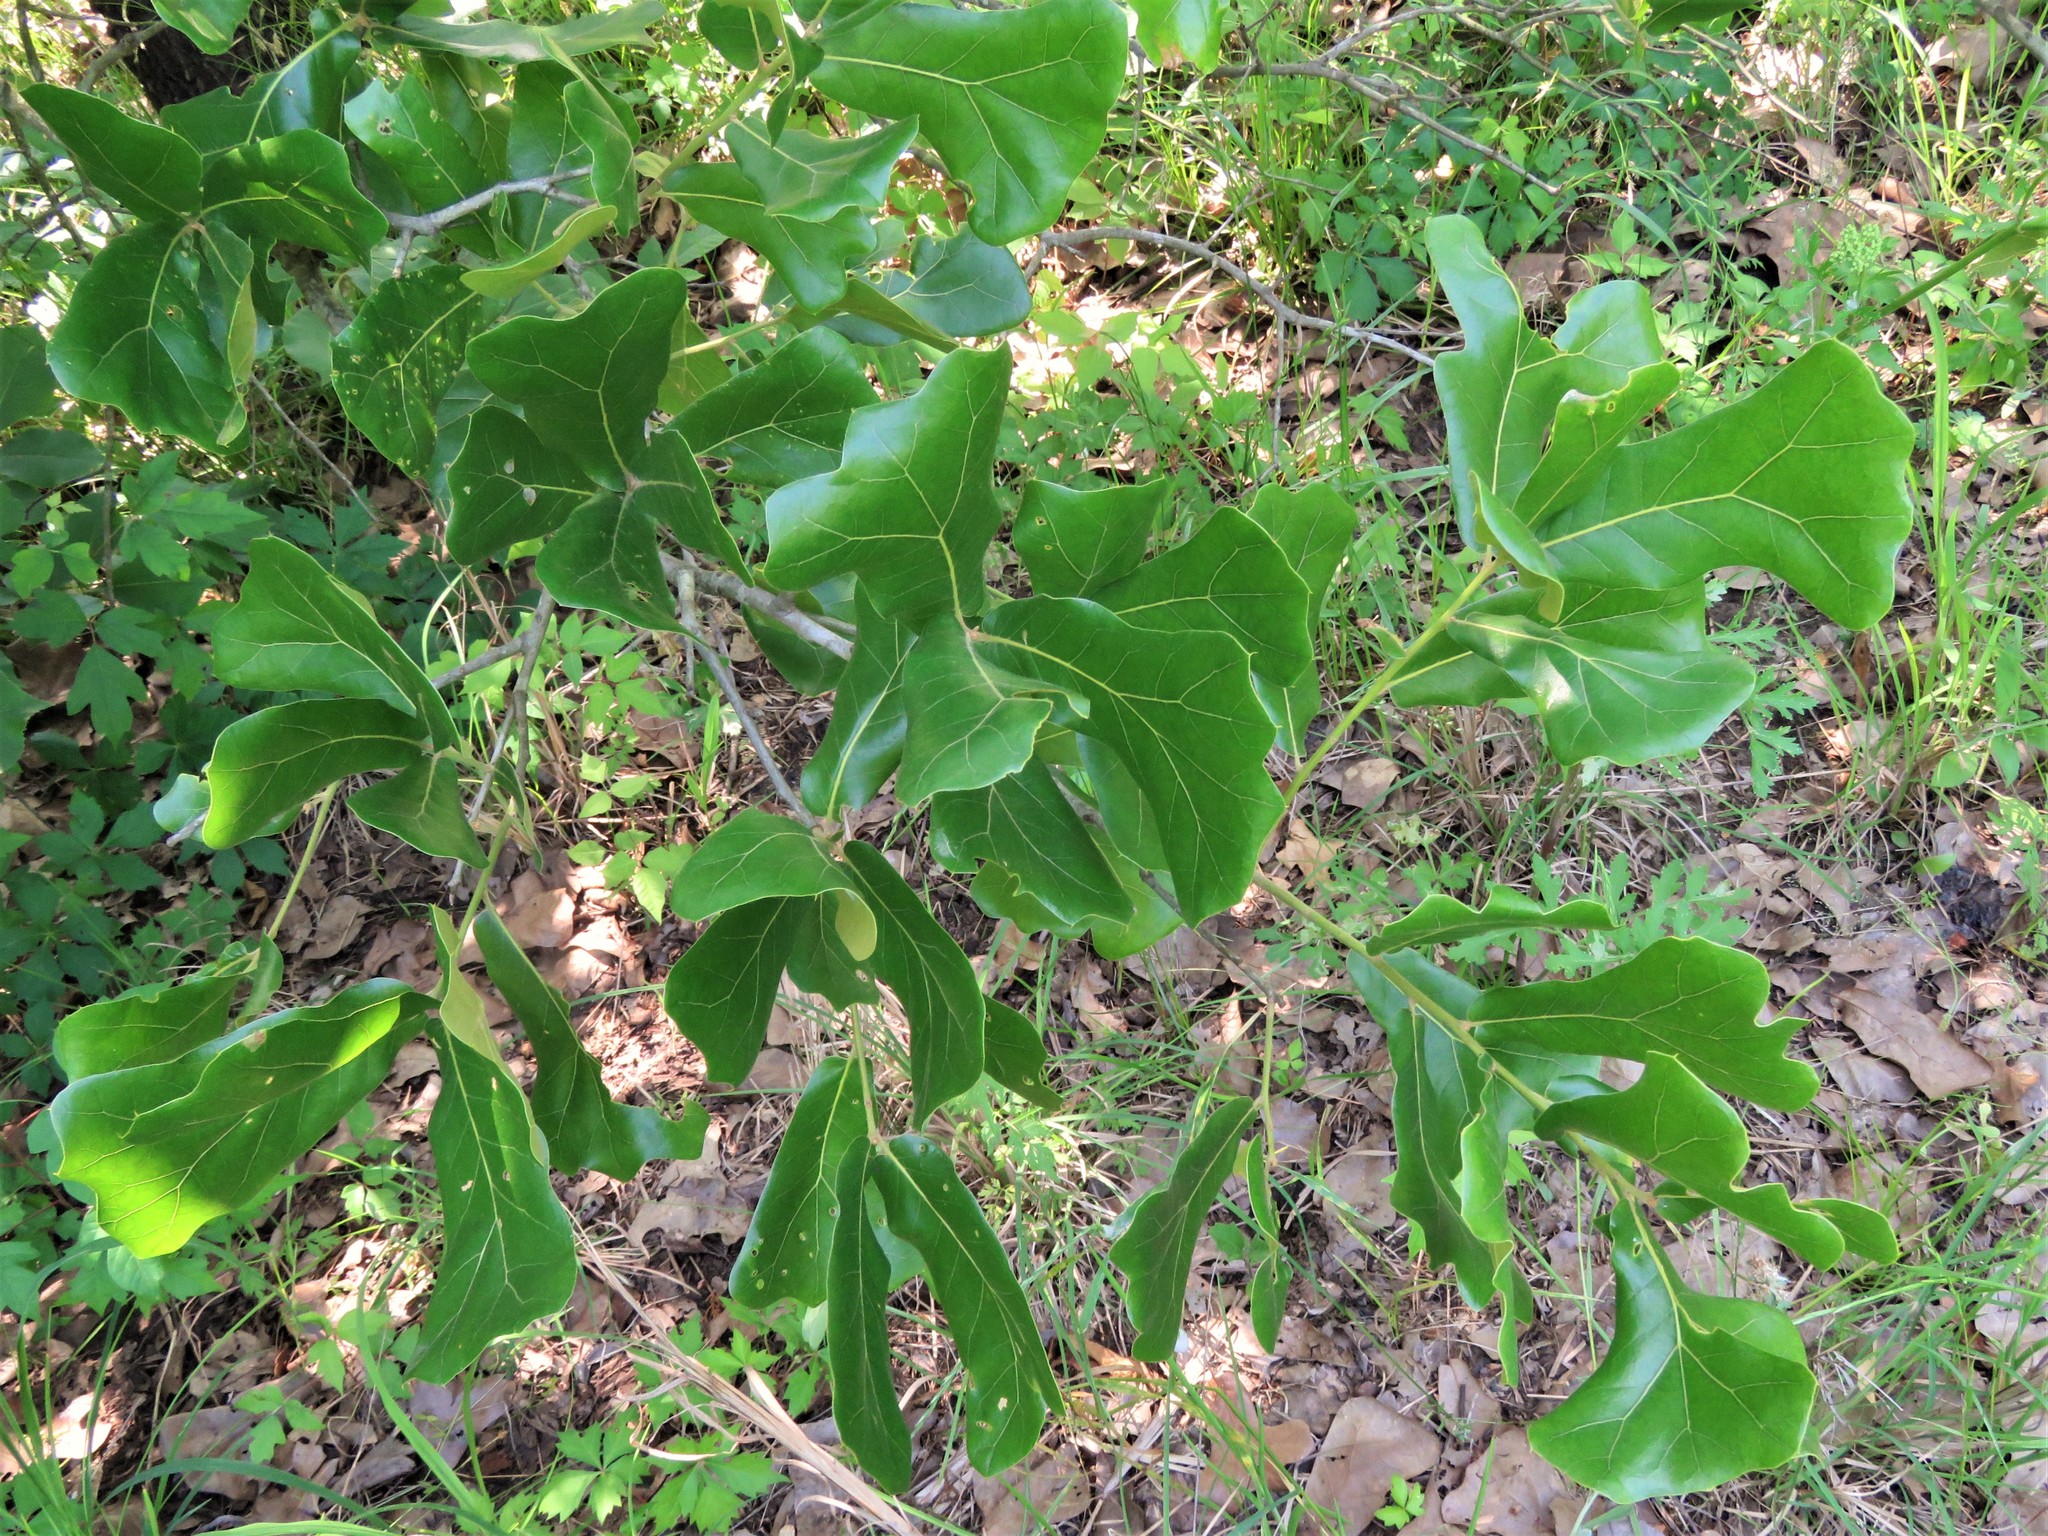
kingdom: Plantae
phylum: Tracheophyta
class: Magnoliopsida
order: Fagales
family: Fagaceae
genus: Quercus
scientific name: Quercus marilandica
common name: Blackjack oak
